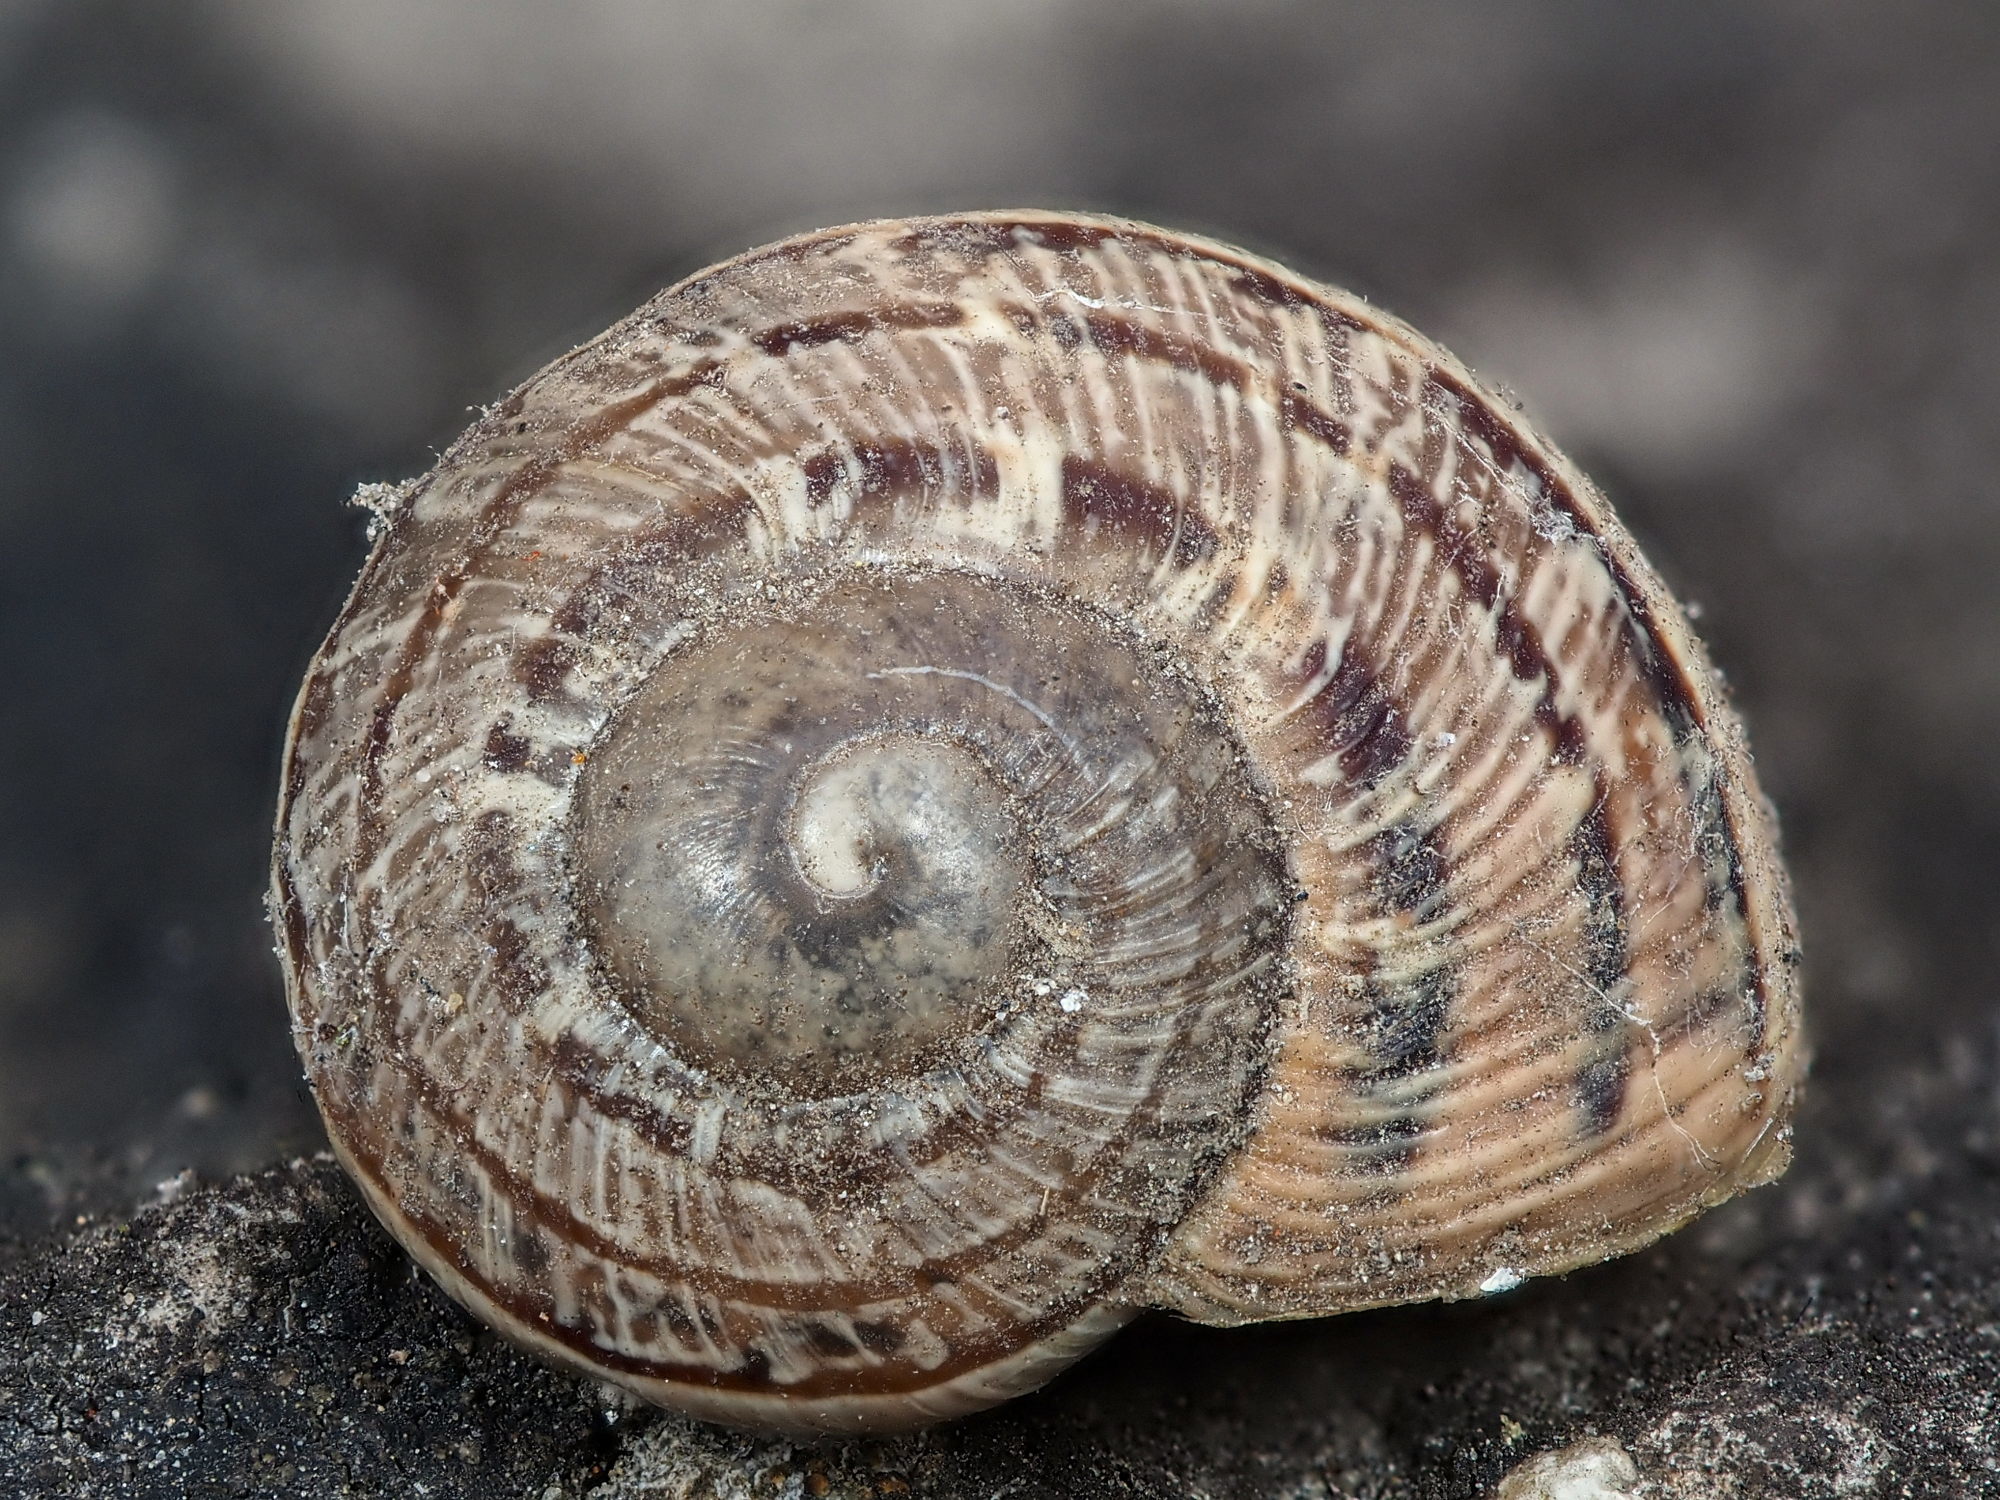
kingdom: Animalia
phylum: Mollusca
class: Gastropoda
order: Stylommatophora
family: Helicidae
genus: Cornu
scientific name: Cornu aspersum
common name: Brown garden snail
